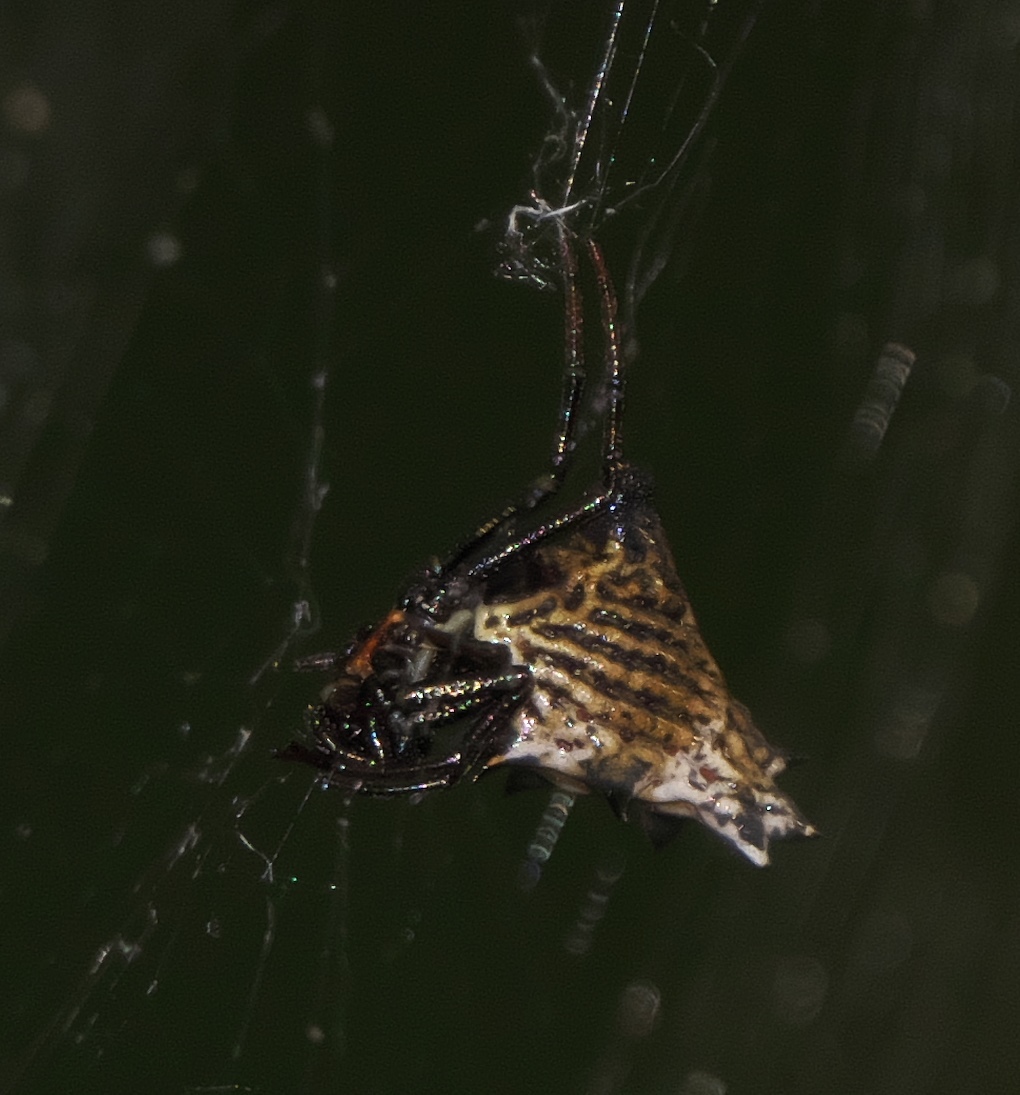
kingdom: Animalia
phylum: Arthropoda
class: Arachnida
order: Araneae
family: Araneidae
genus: Micrathena
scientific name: Micrathena gracilis
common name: Orb weavers
